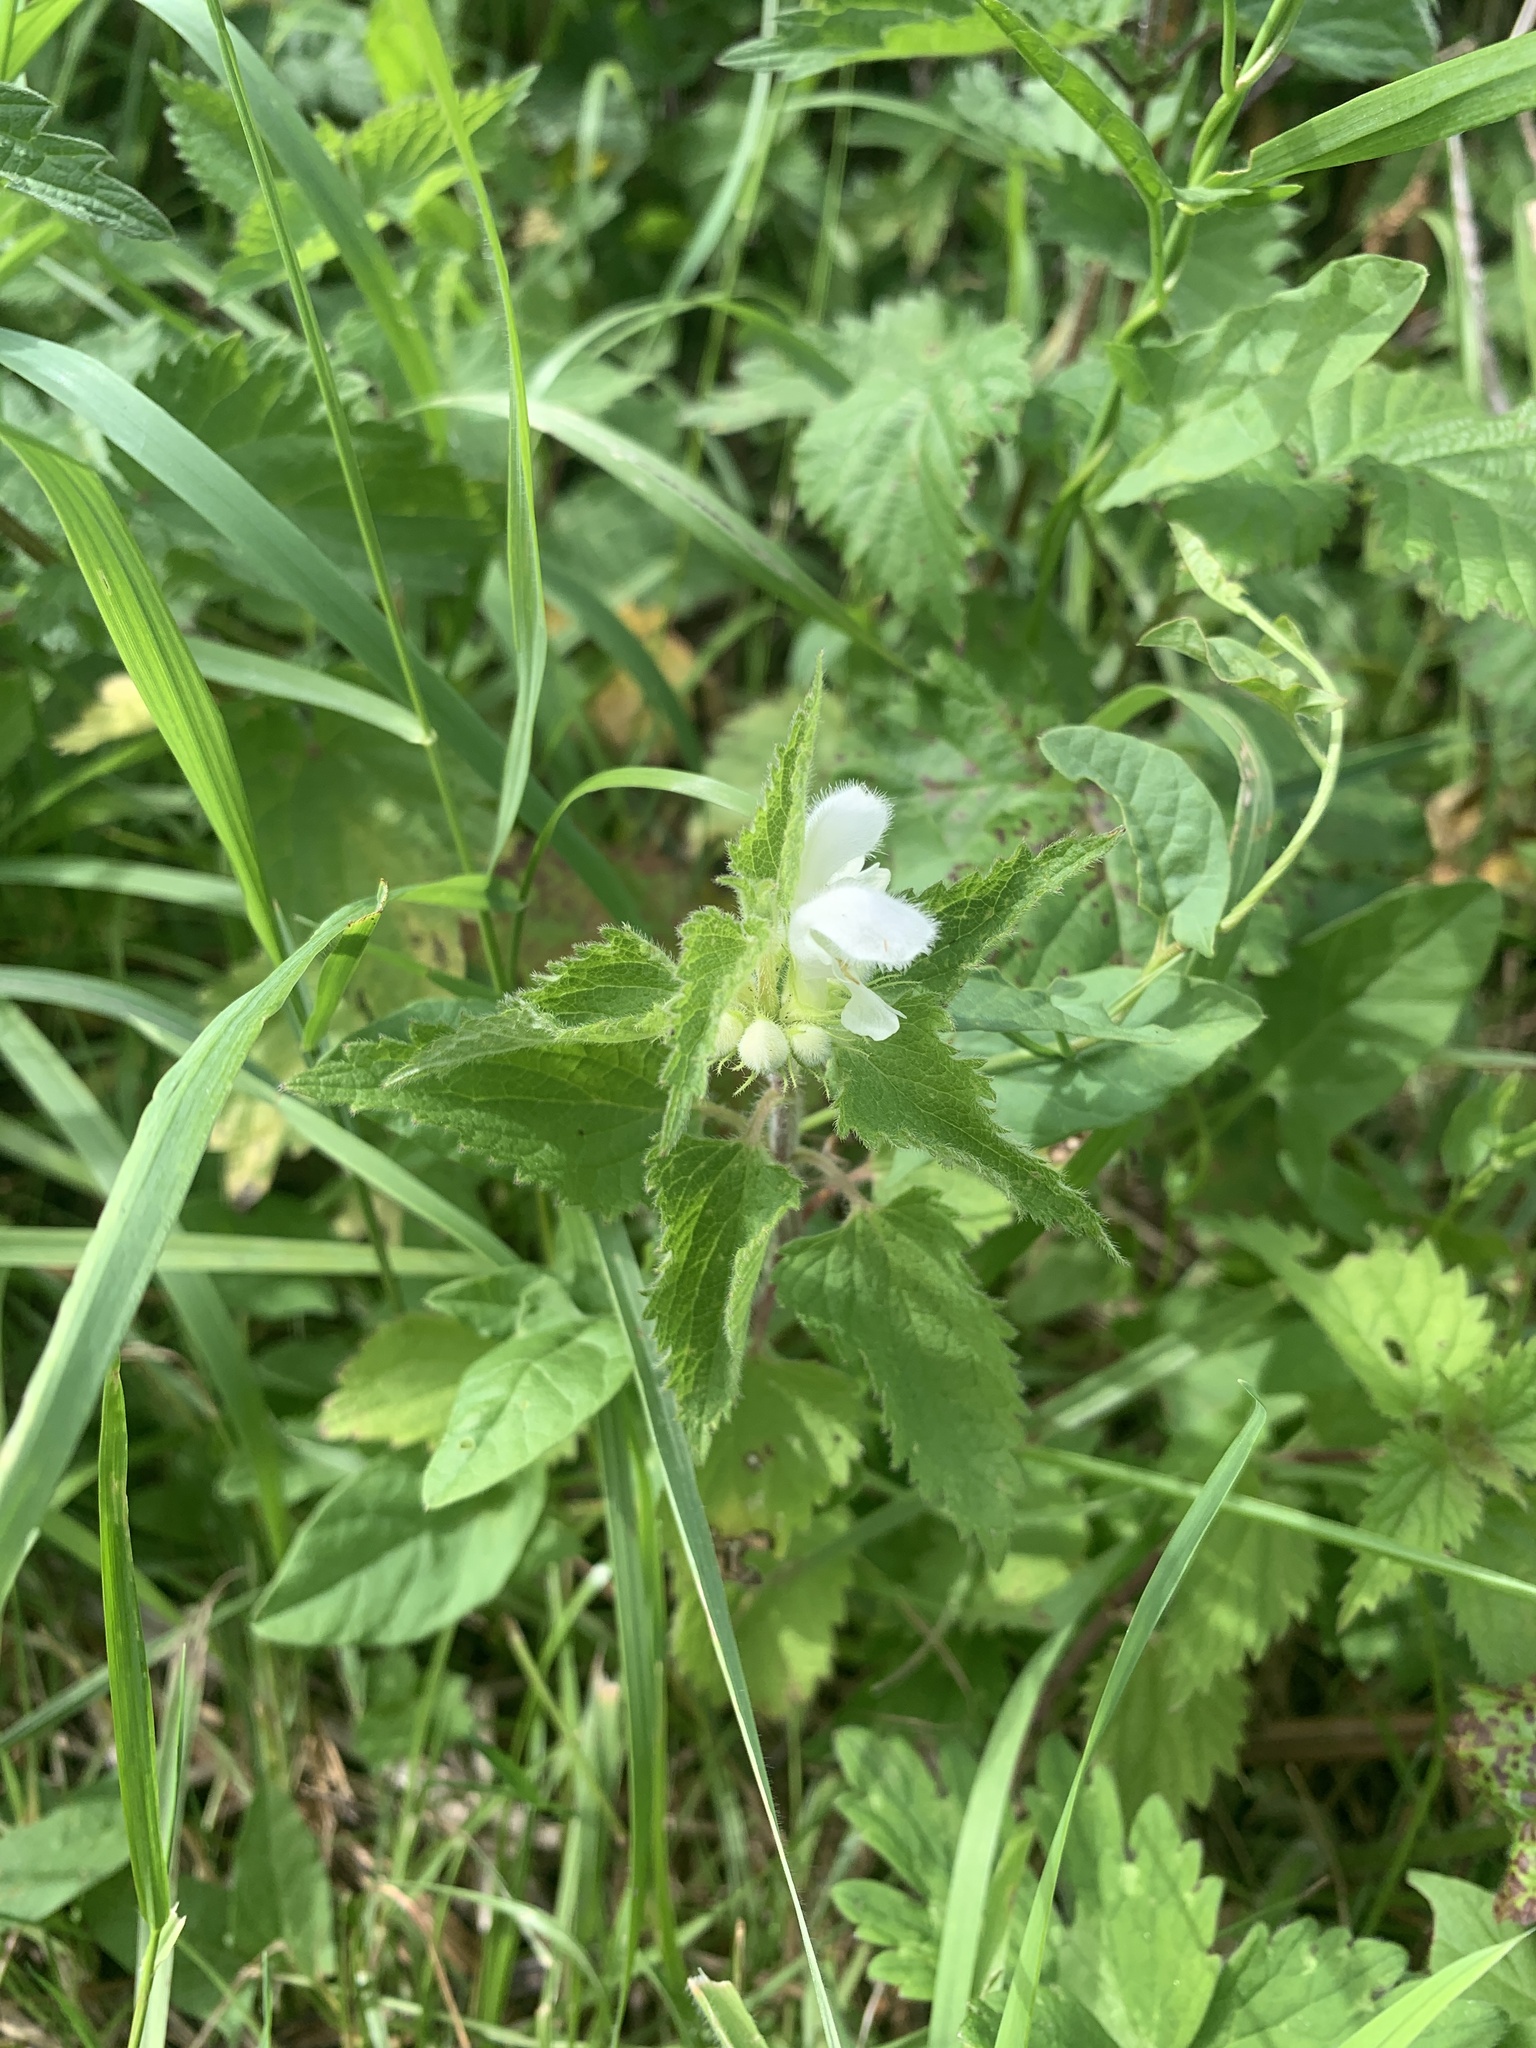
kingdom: Plantae
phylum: Tracheophyta
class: Magnoliopsida
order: Lamiales
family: Lamiaceae
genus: Lamium
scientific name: Lamium album
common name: White dead-nettle
